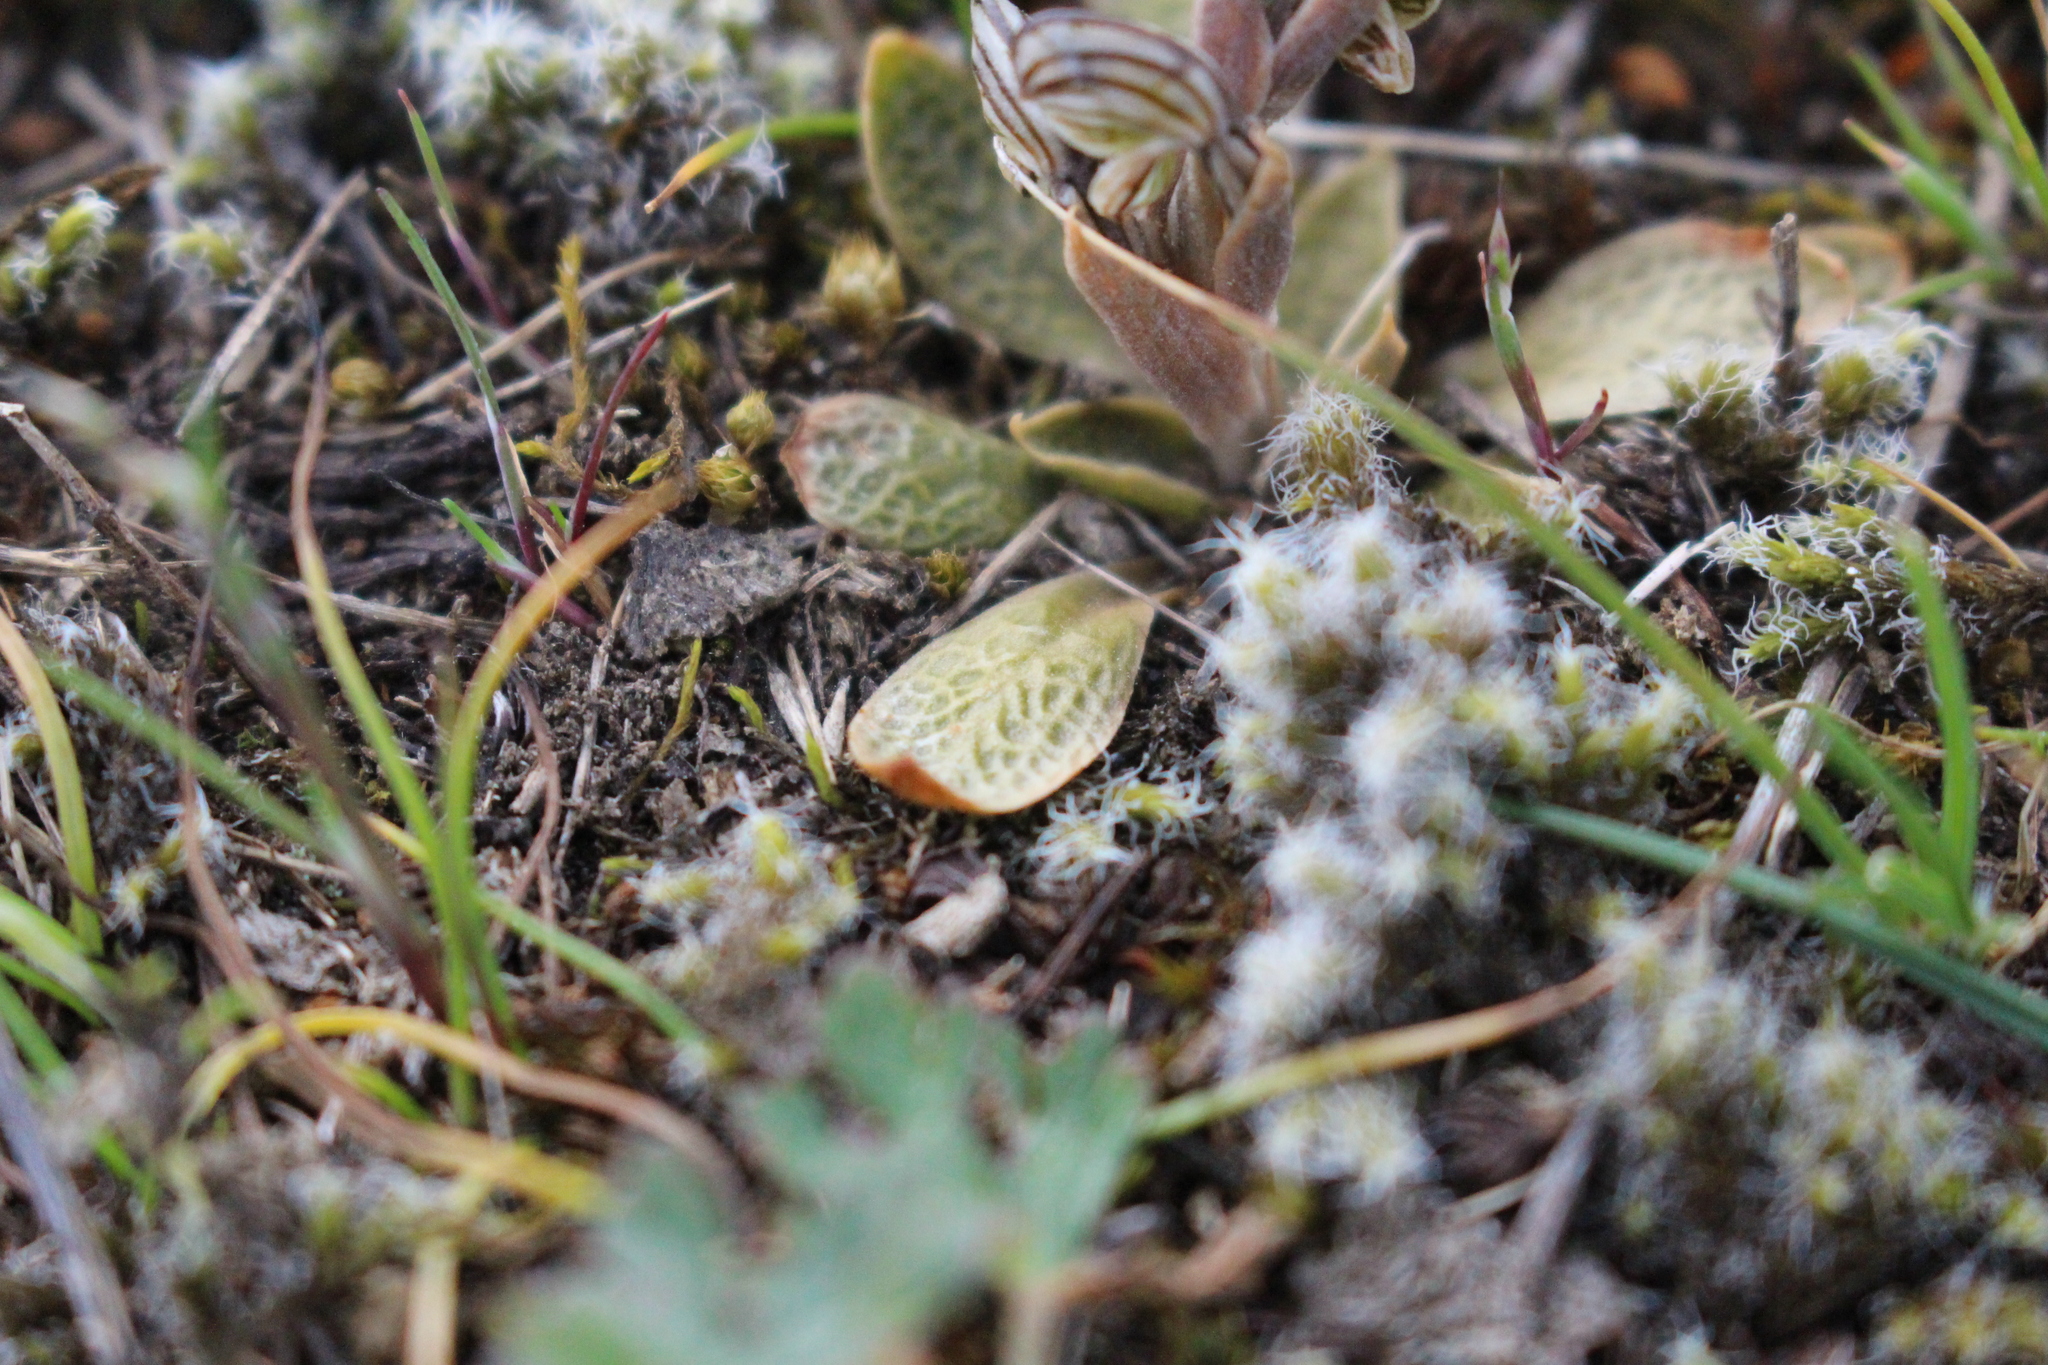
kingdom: Plantae
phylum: Tracheophyta
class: Liliopsida
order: Asparagales
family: Orchidaceae
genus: Pterostylis
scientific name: Pterostylis tristis
